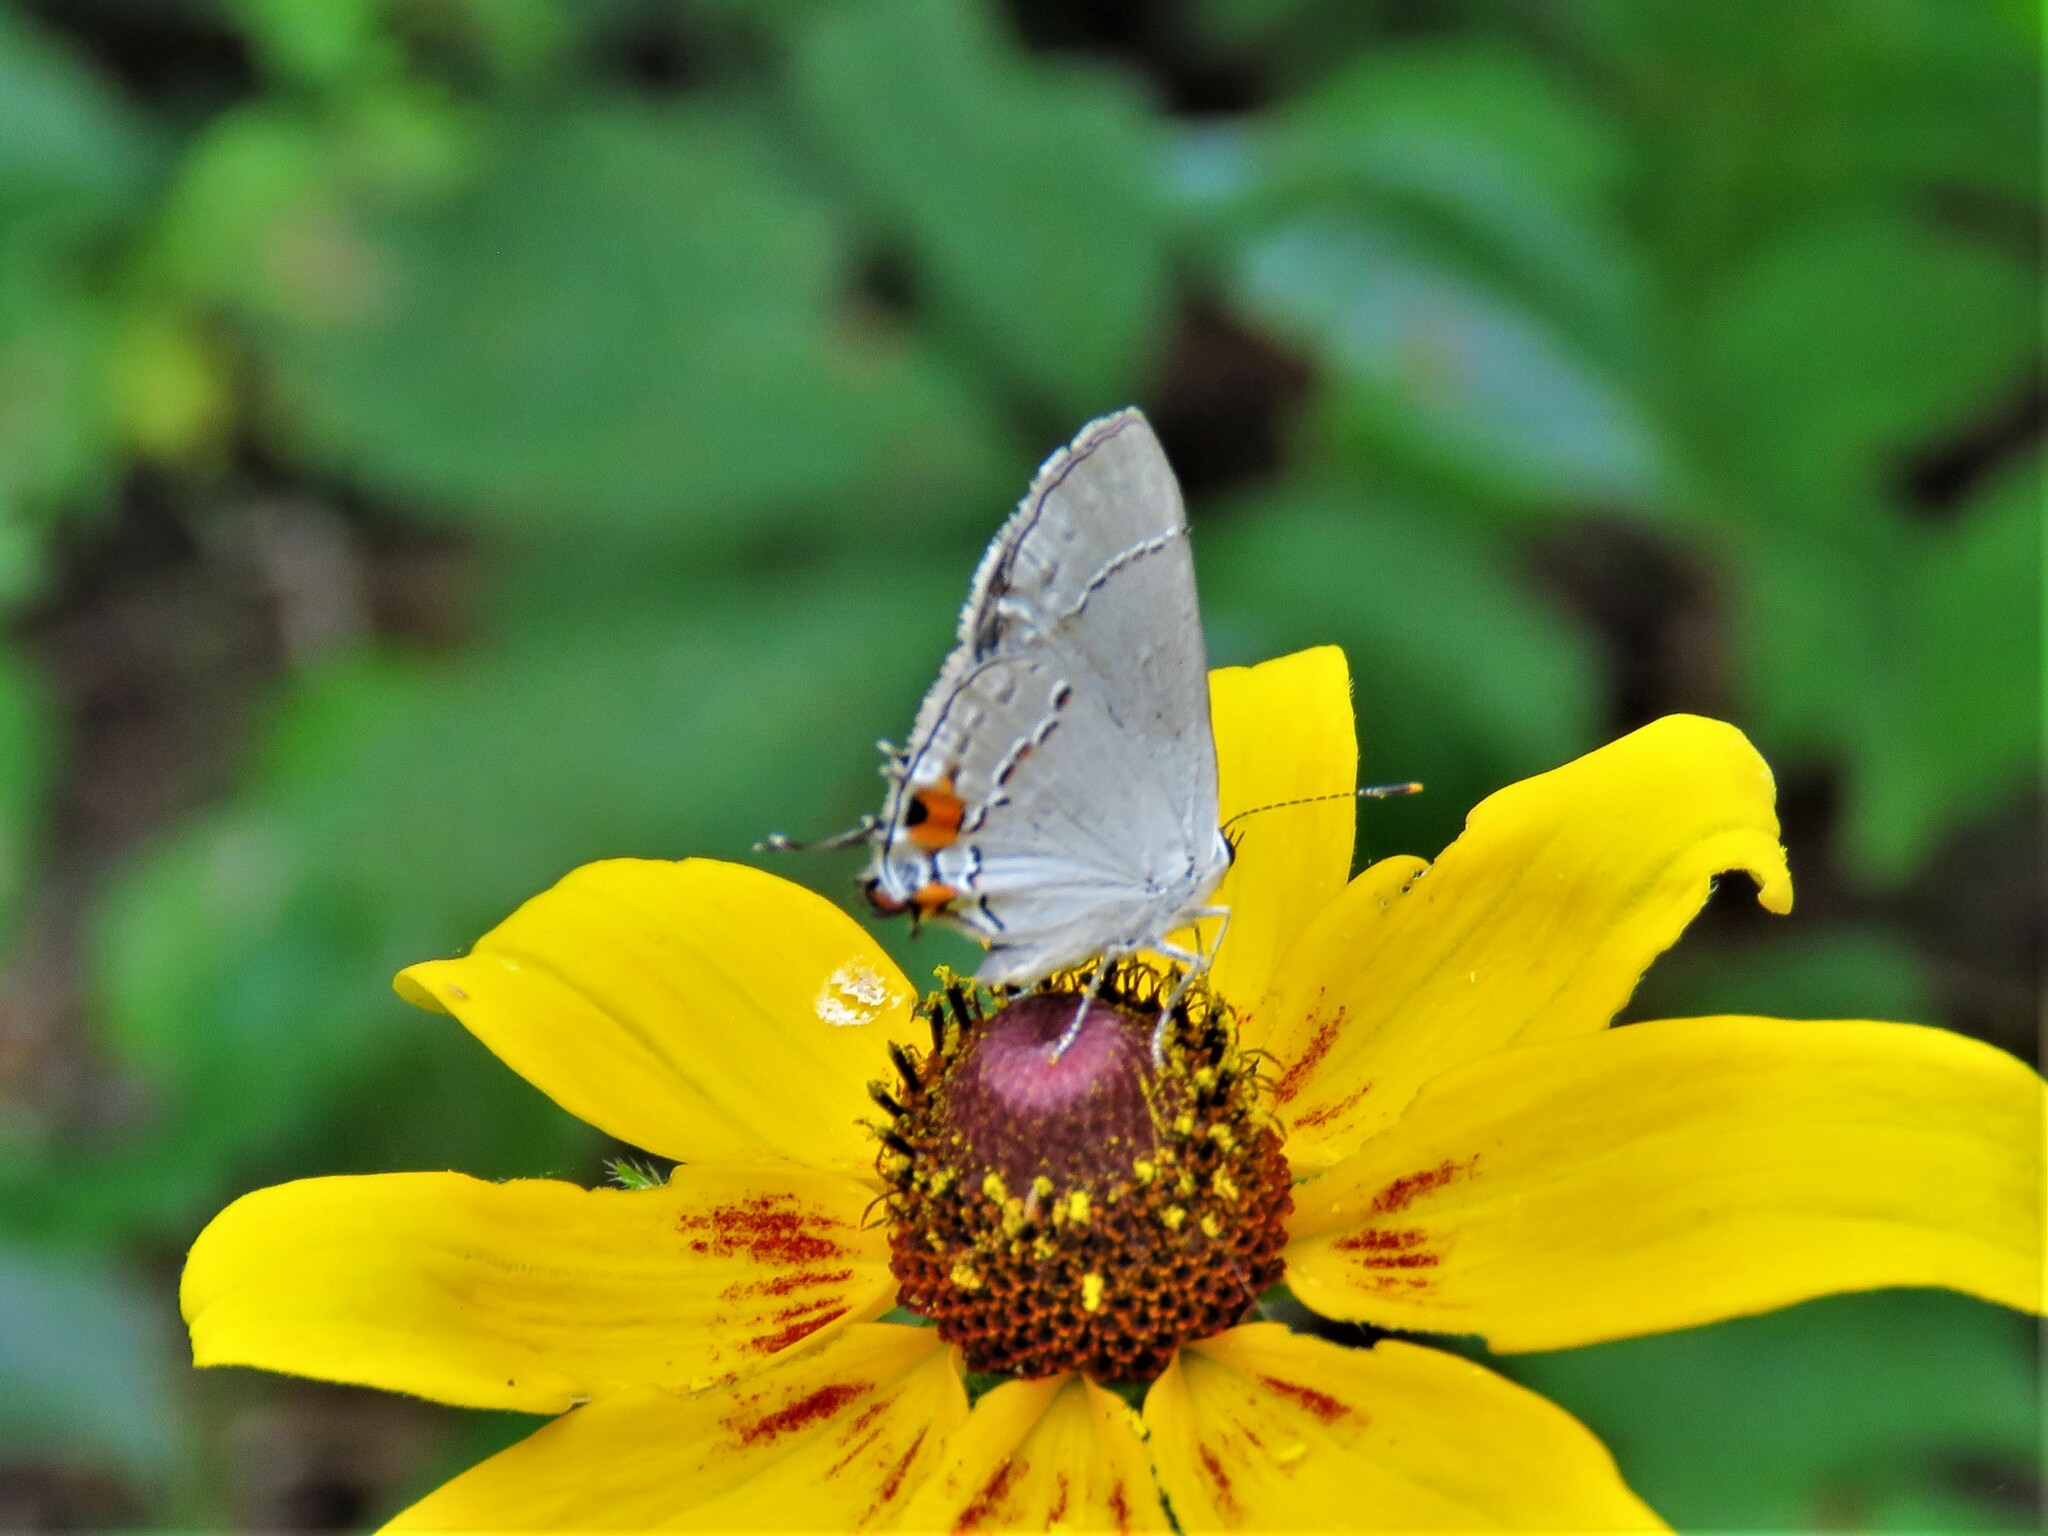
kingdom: Animalia
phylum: Arthropoda
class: Insecta
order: Lepidoptera
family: Lycaenidae
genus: Strymon
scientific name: Strymon melinus
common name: Gray hairstreak
